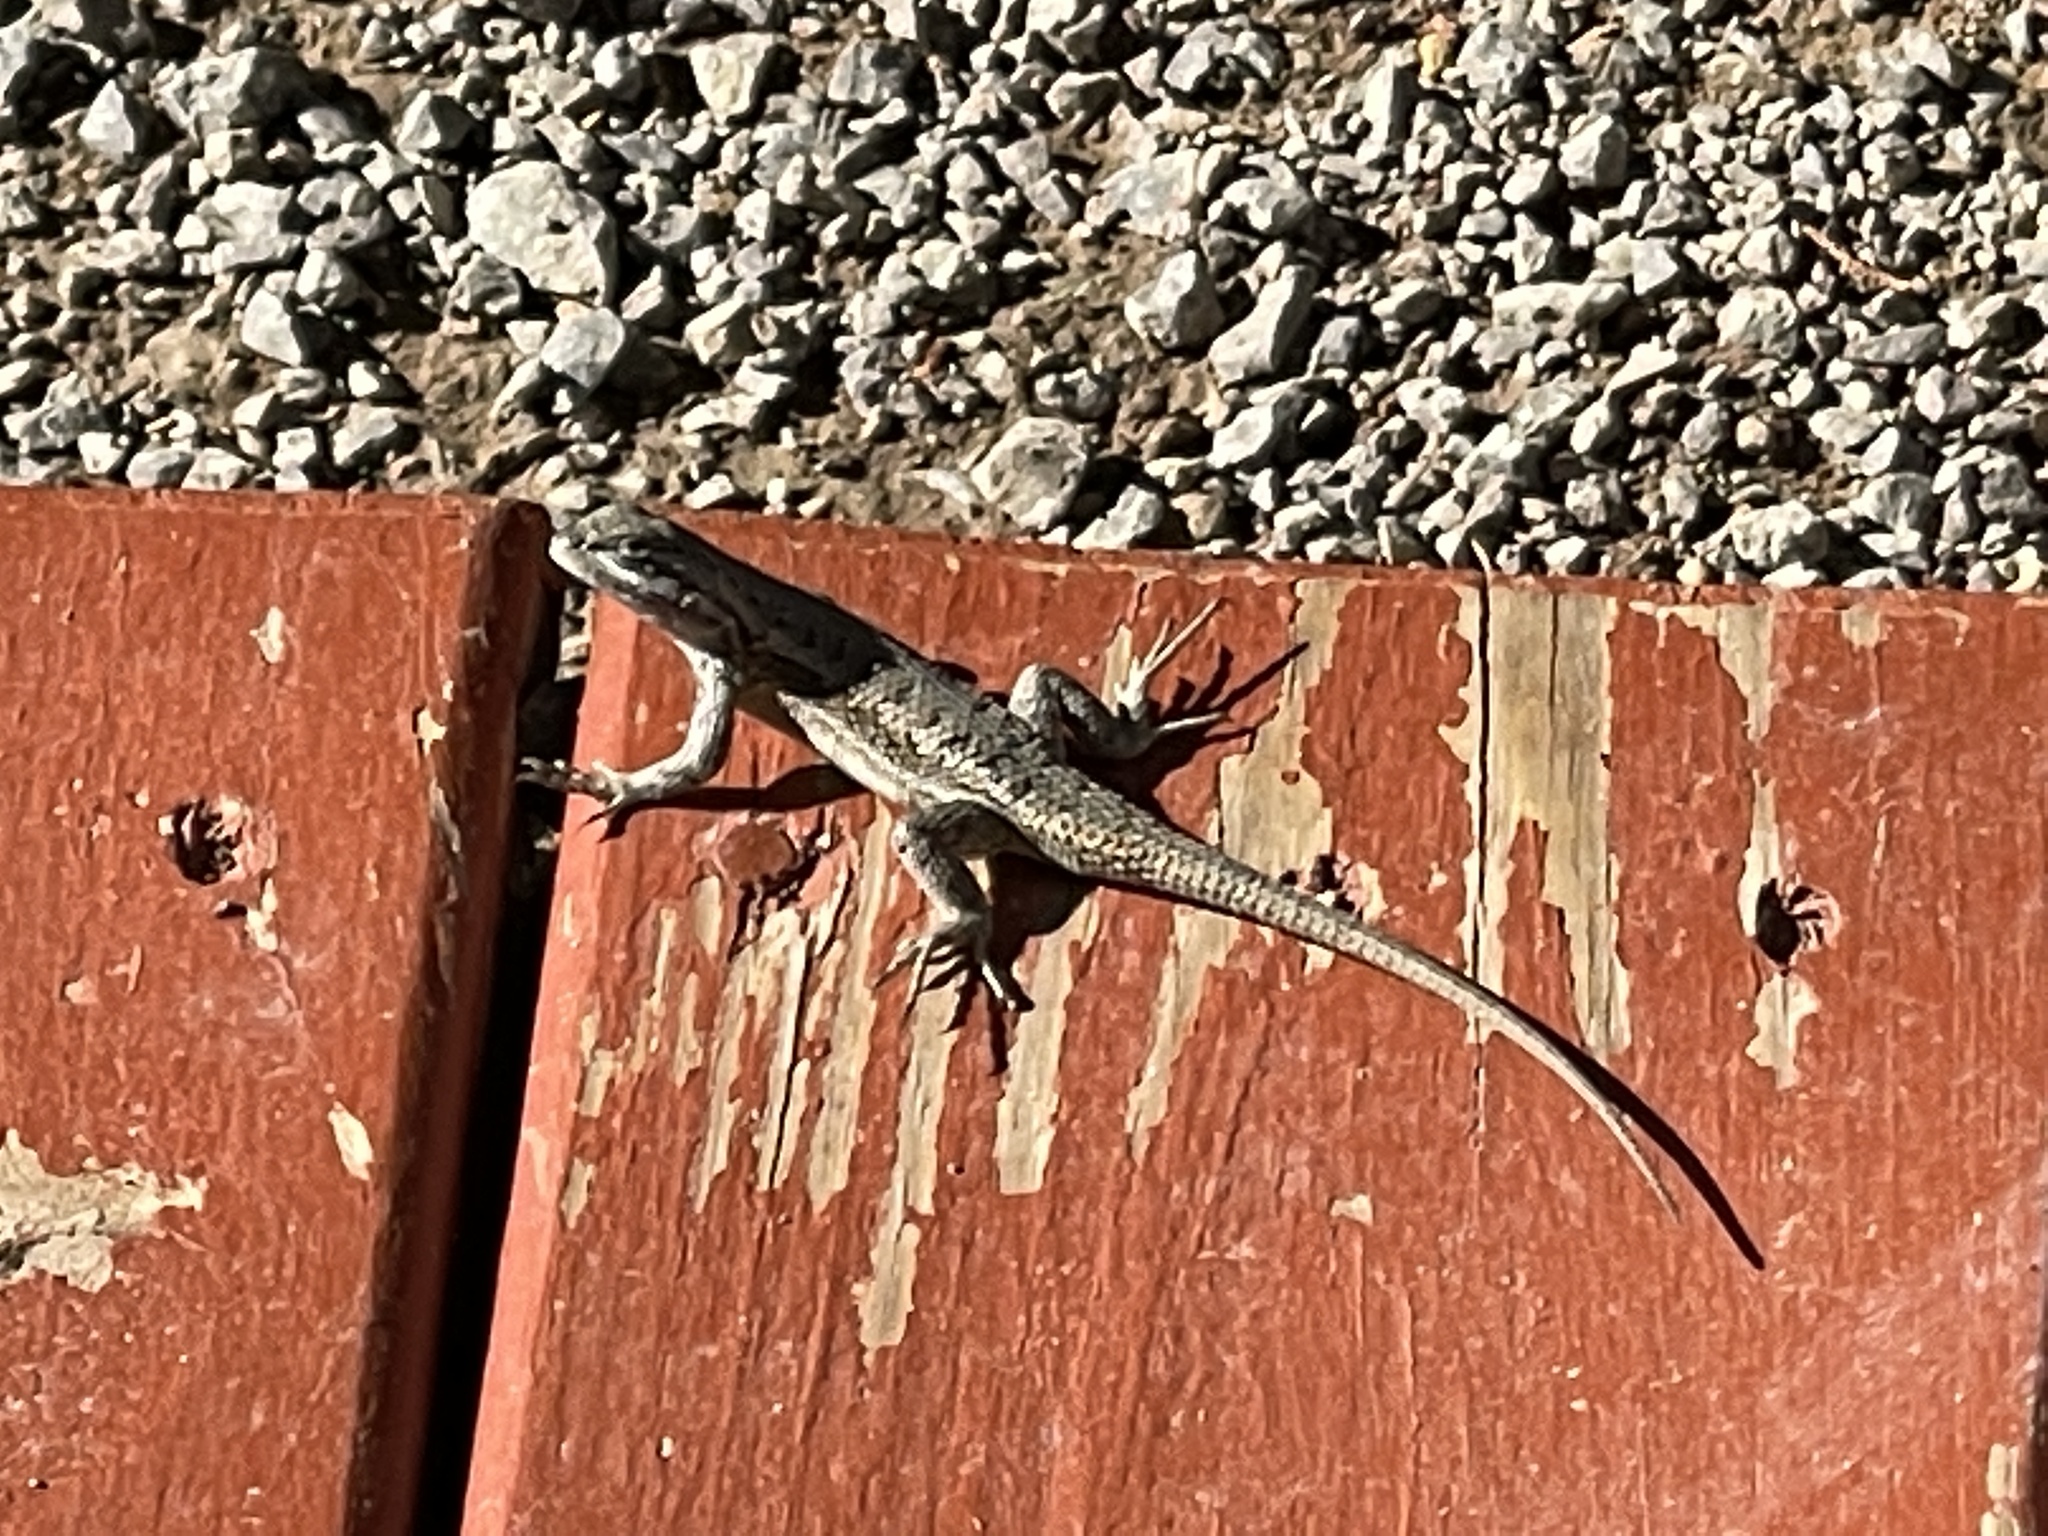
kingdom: Animalia
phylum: Chordata
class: Squamata
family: Phrynosomatidae
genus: Sceloporus
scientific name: Sceloporus cowlesi
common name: White sands prairie lizard
